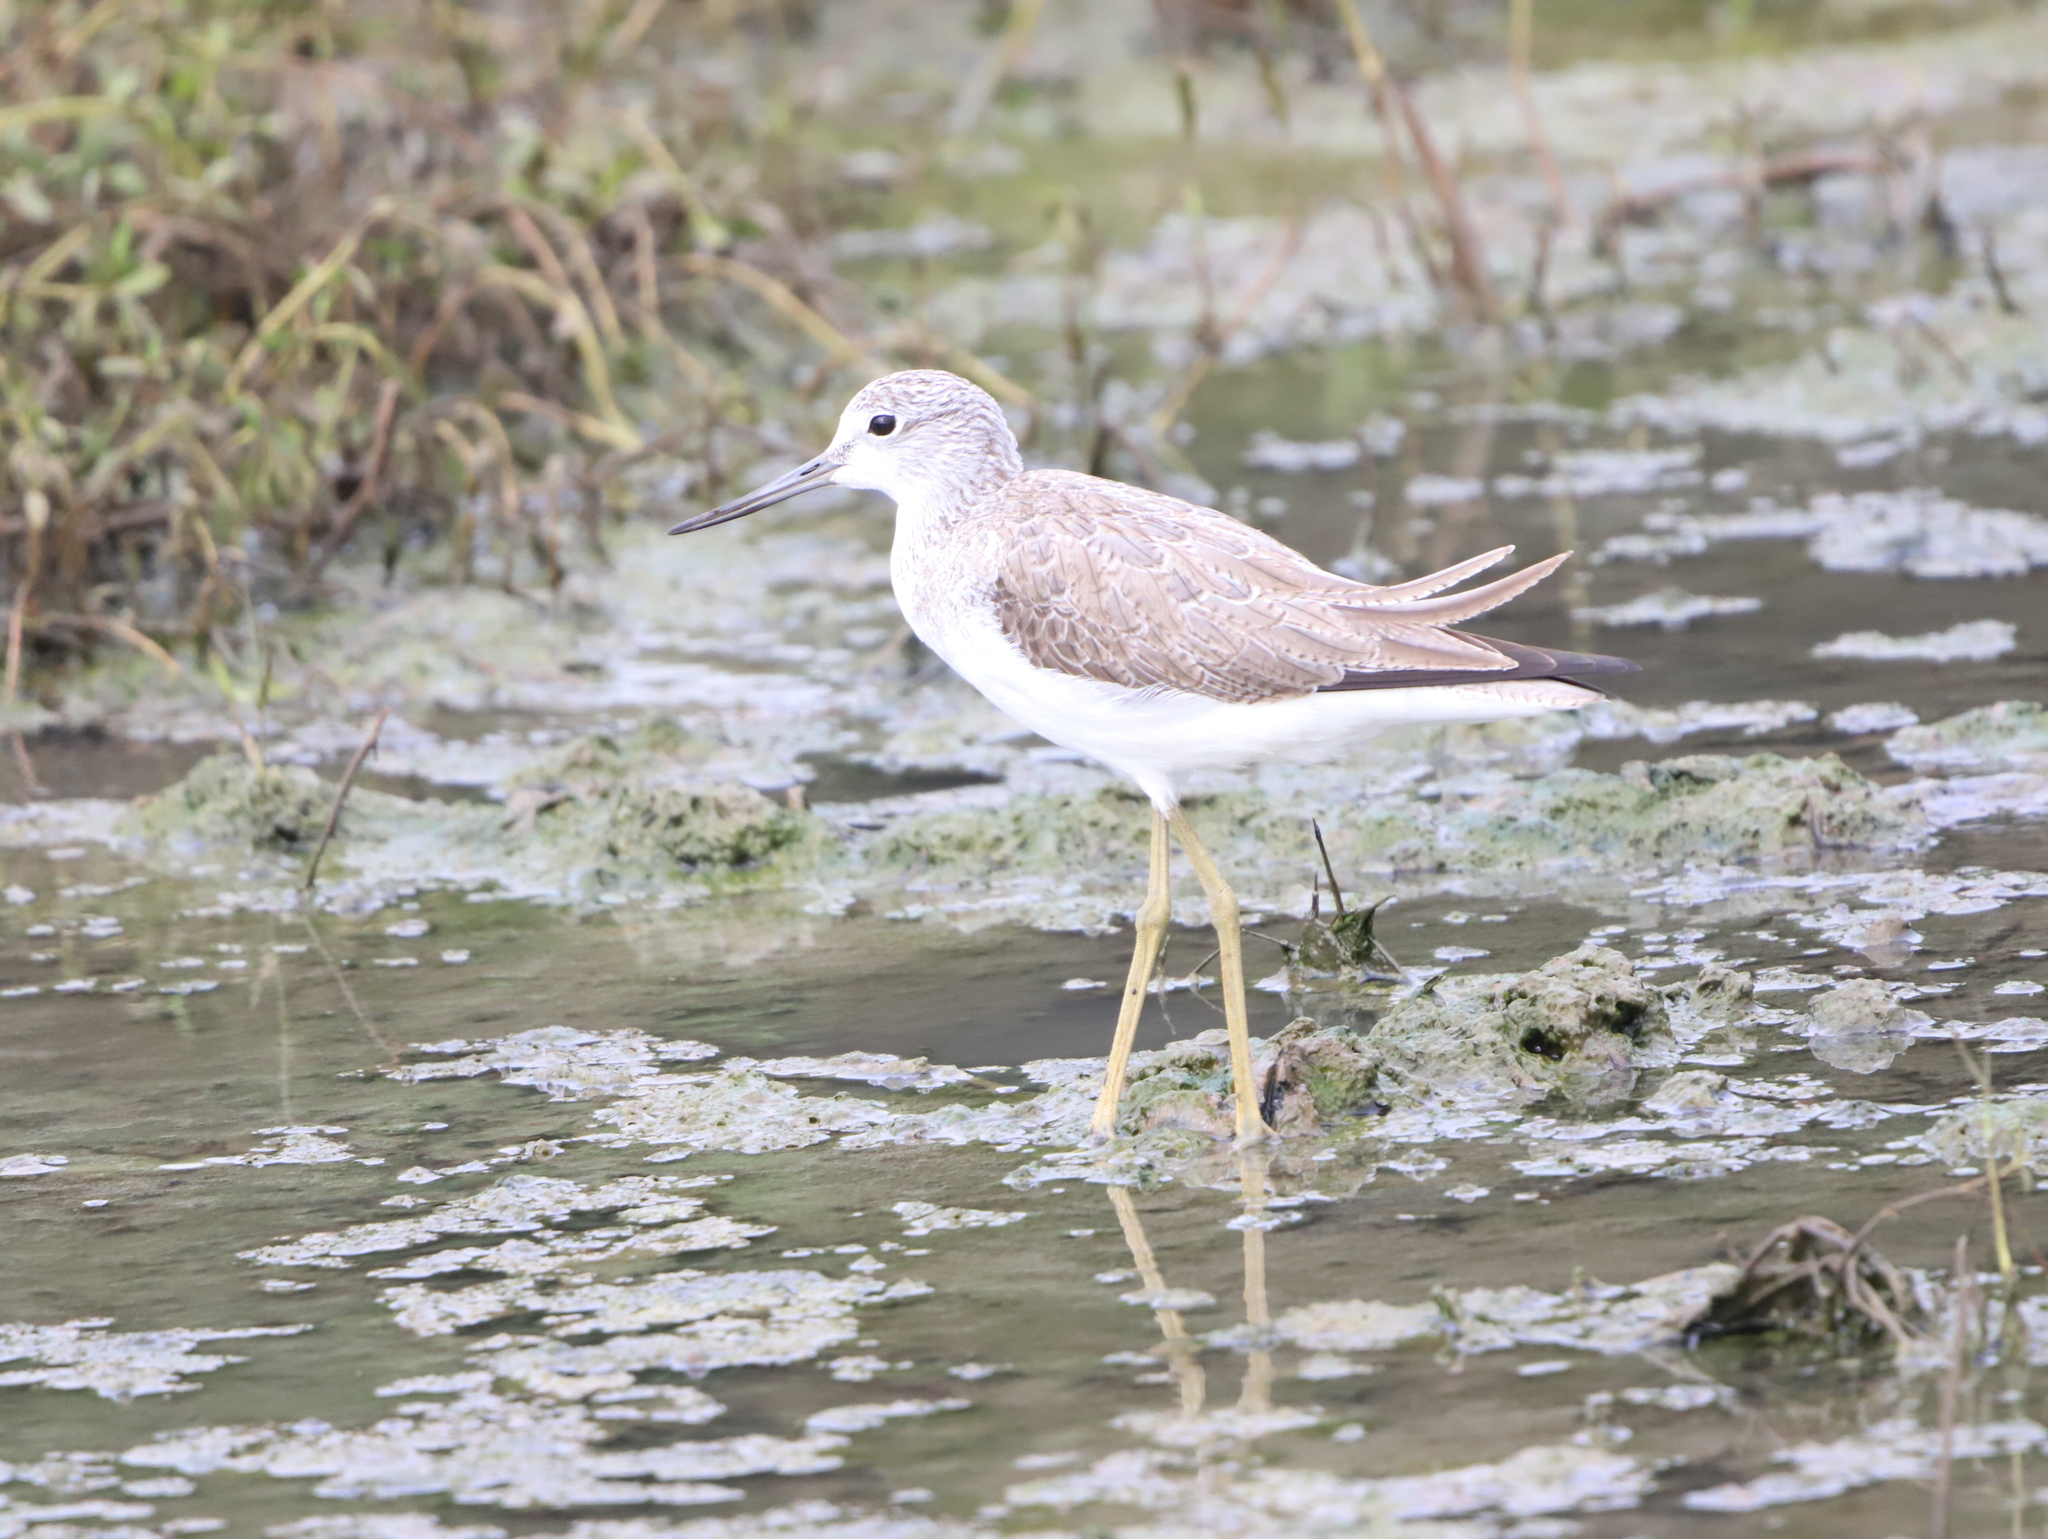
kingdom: Animalia
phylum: Chordata
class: Aves
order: Charadriiformes
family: Scolopacidae
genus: Tringa
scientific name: Tringa nebularia
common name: Common greenshank
